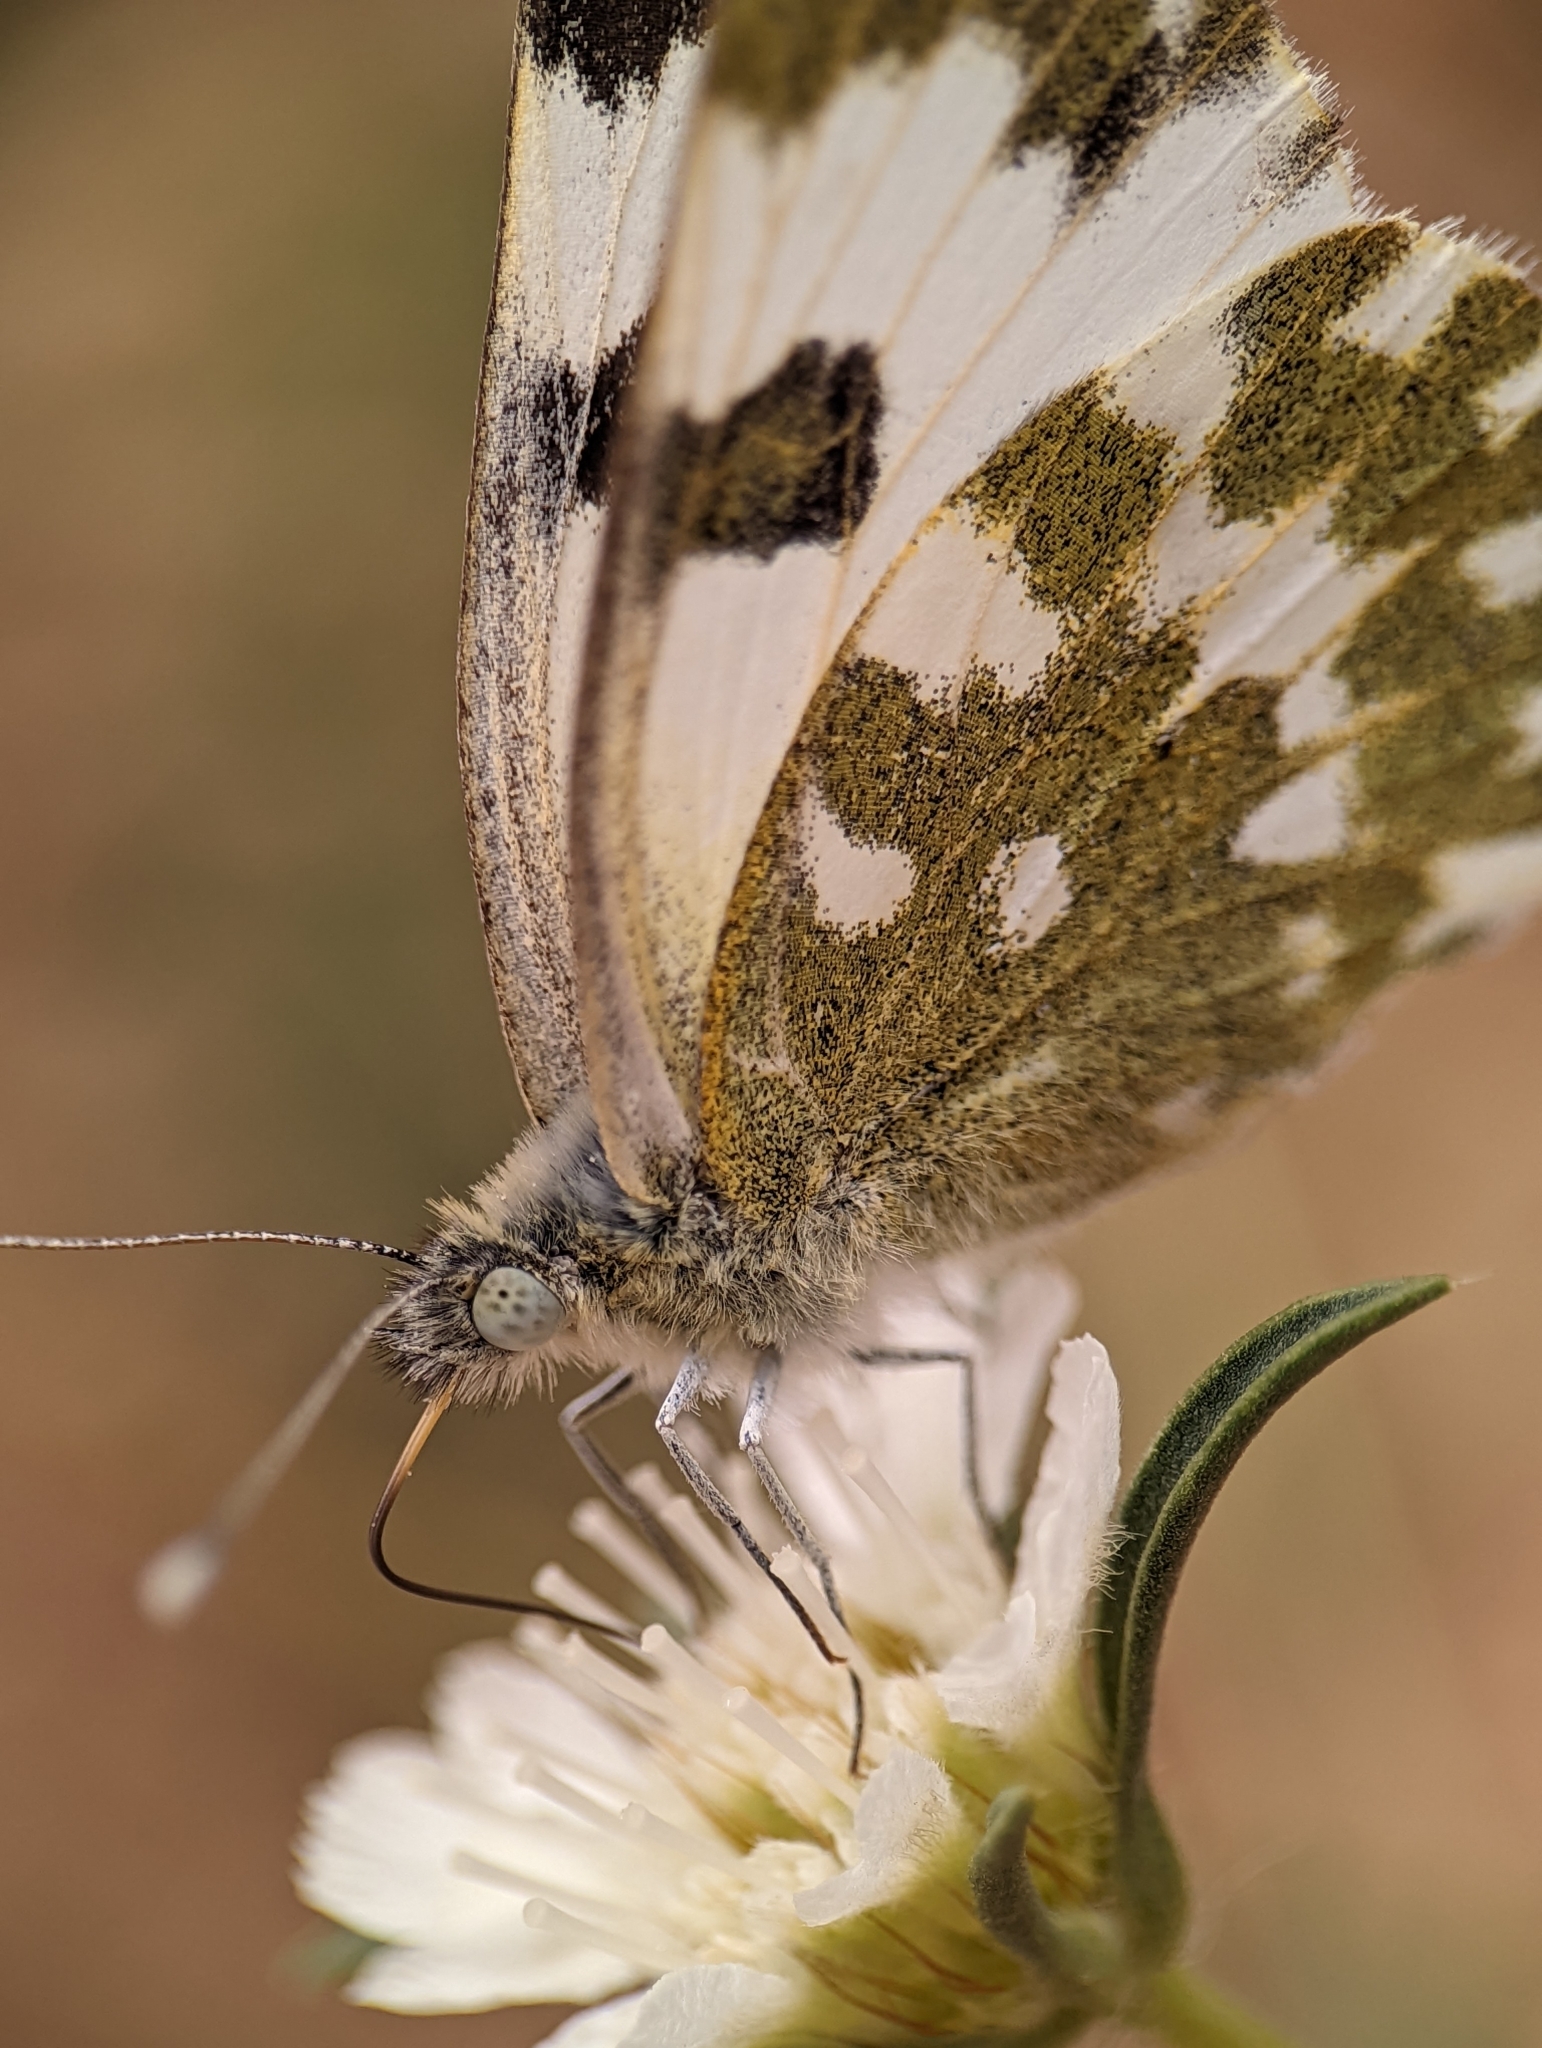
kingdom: Animalia
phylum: Arthropoda
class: Insecta
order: Lepidoptera
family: Pieridae
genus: Pontia
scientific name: Pontia edusa
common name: Eastern bath white
